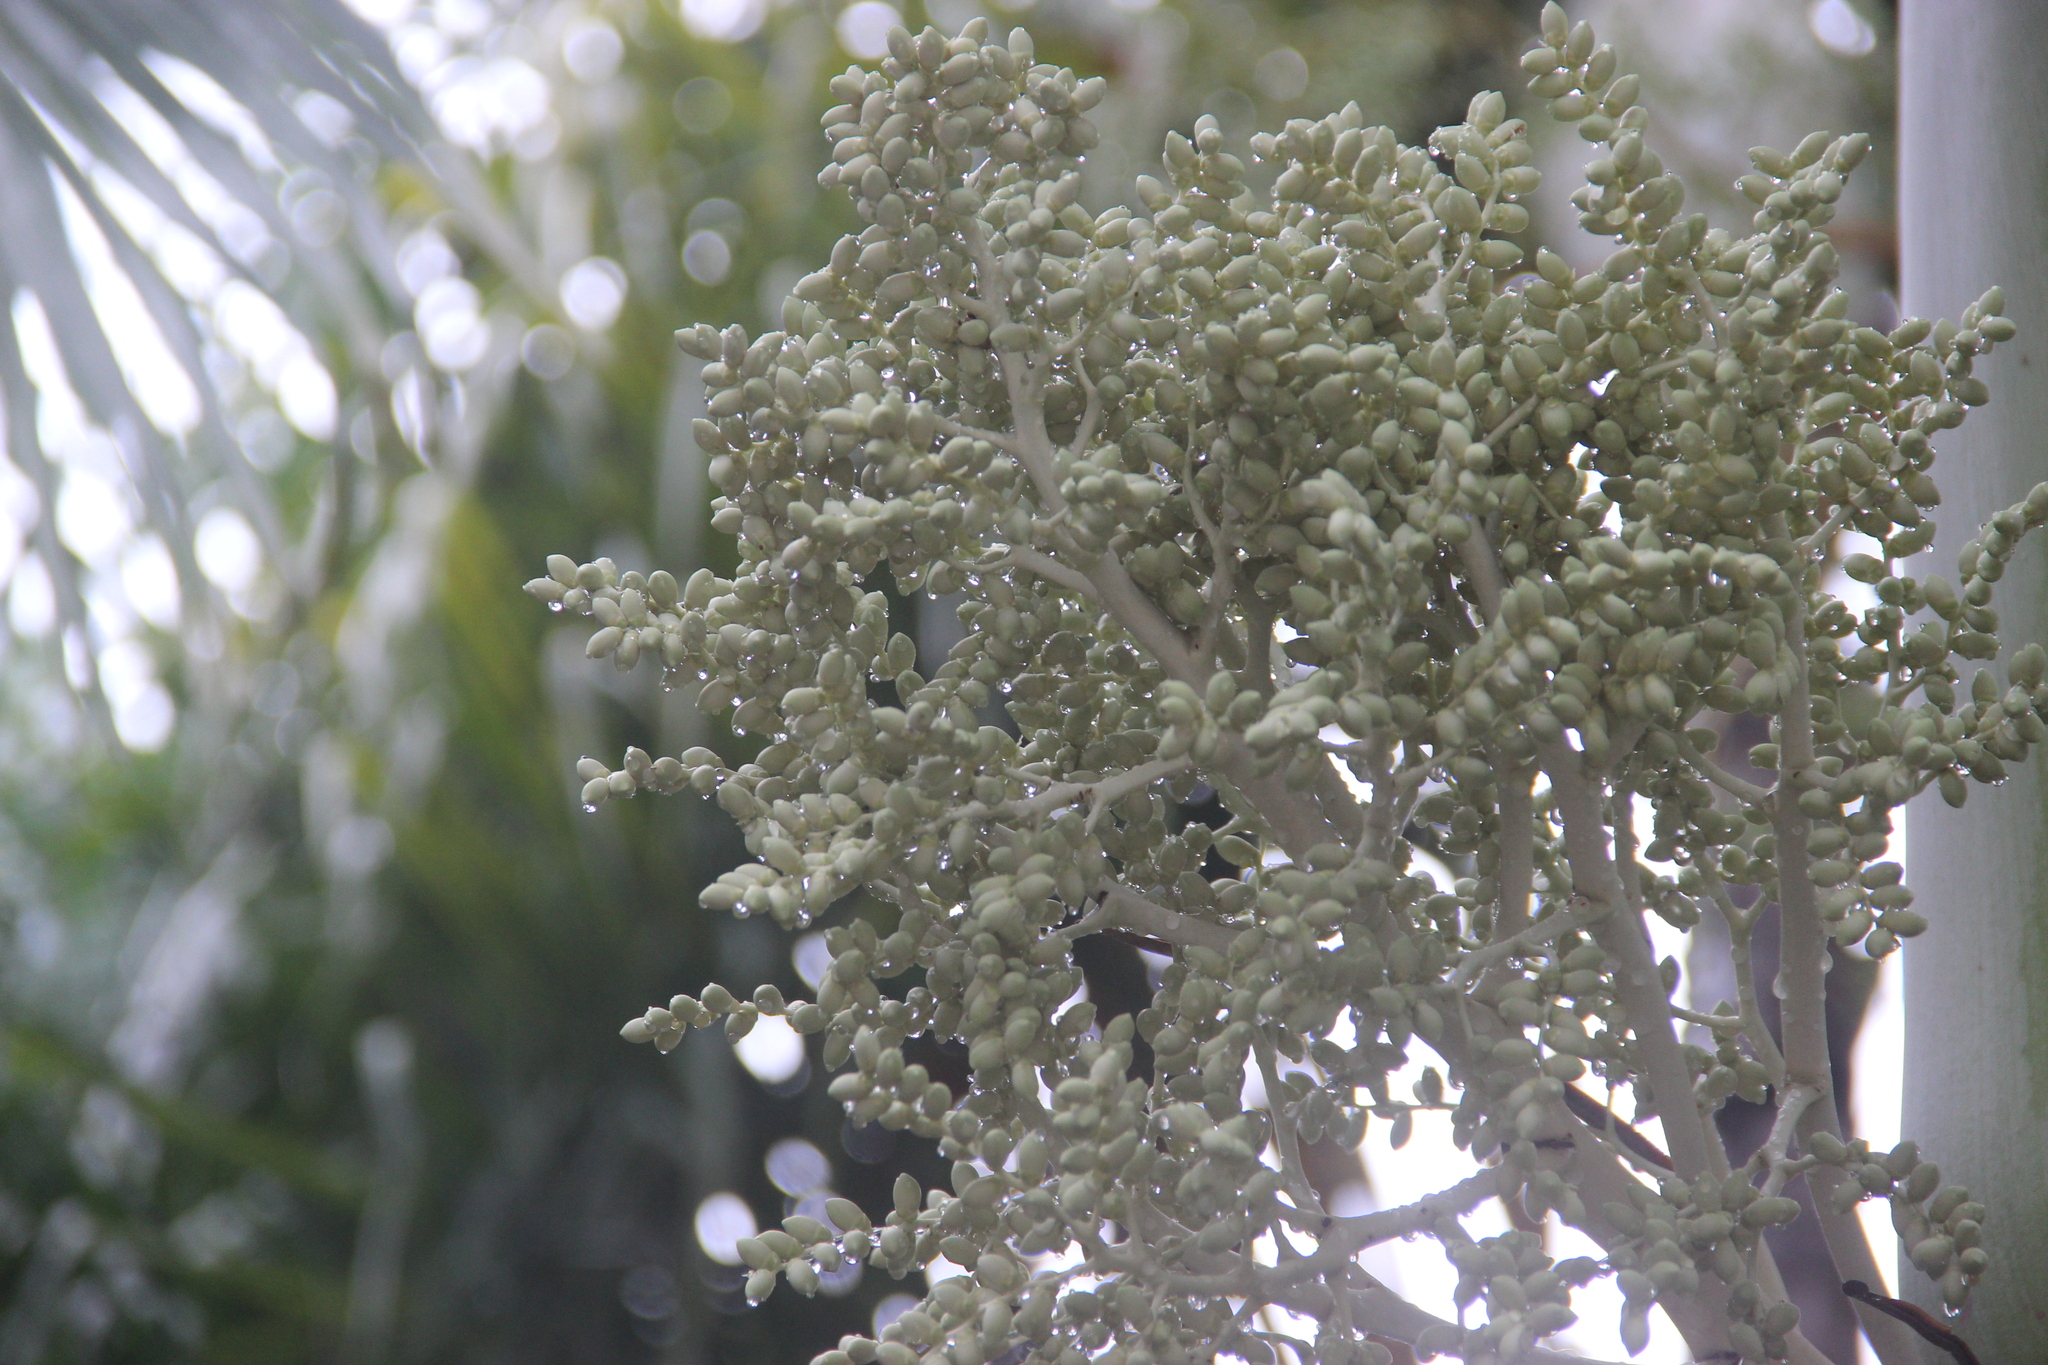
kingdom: Plantae
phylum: Tracheophyta
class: Liliopsida
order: Arecales
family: Arecaceae
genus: Adonidia
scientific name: Adonidia merrillii
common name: Manila palm
